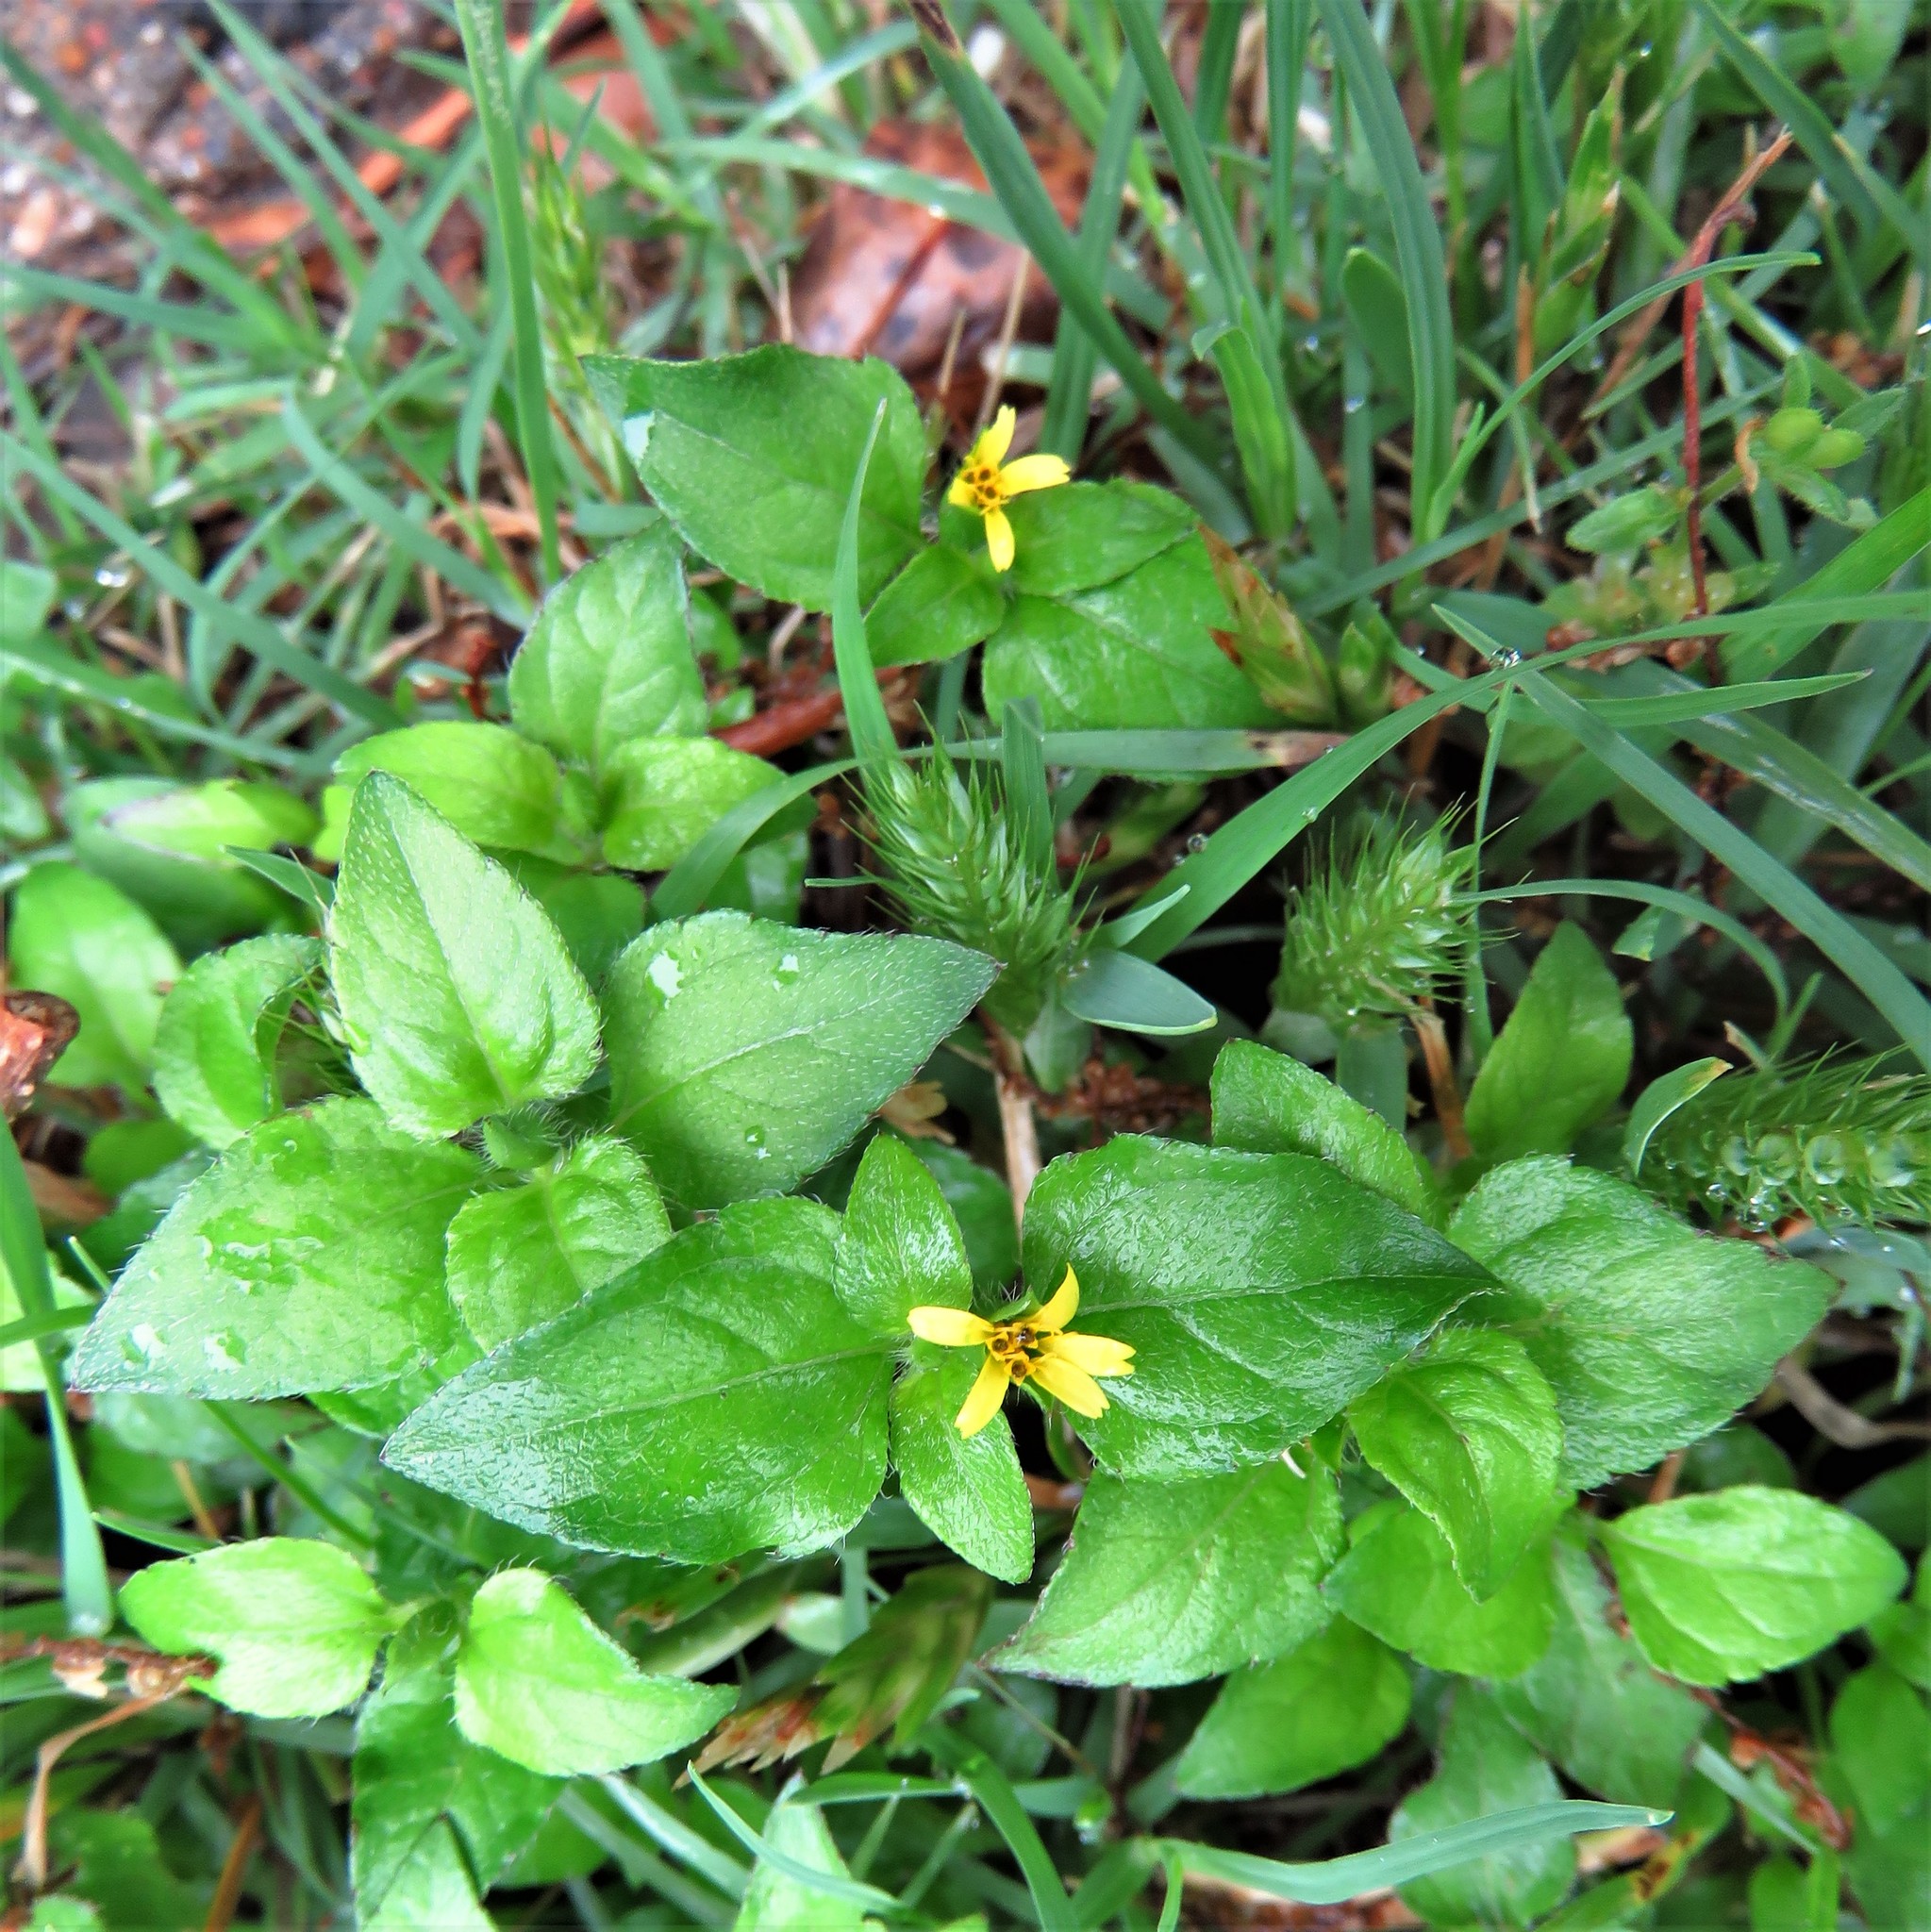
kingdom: Plantae
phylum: Tracheophyta
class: Magnoliopsida
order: Asterales
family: Asteraceae
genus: Calyptocarpus
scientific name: Calyptocarpus vialis
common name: Straggler daisy
